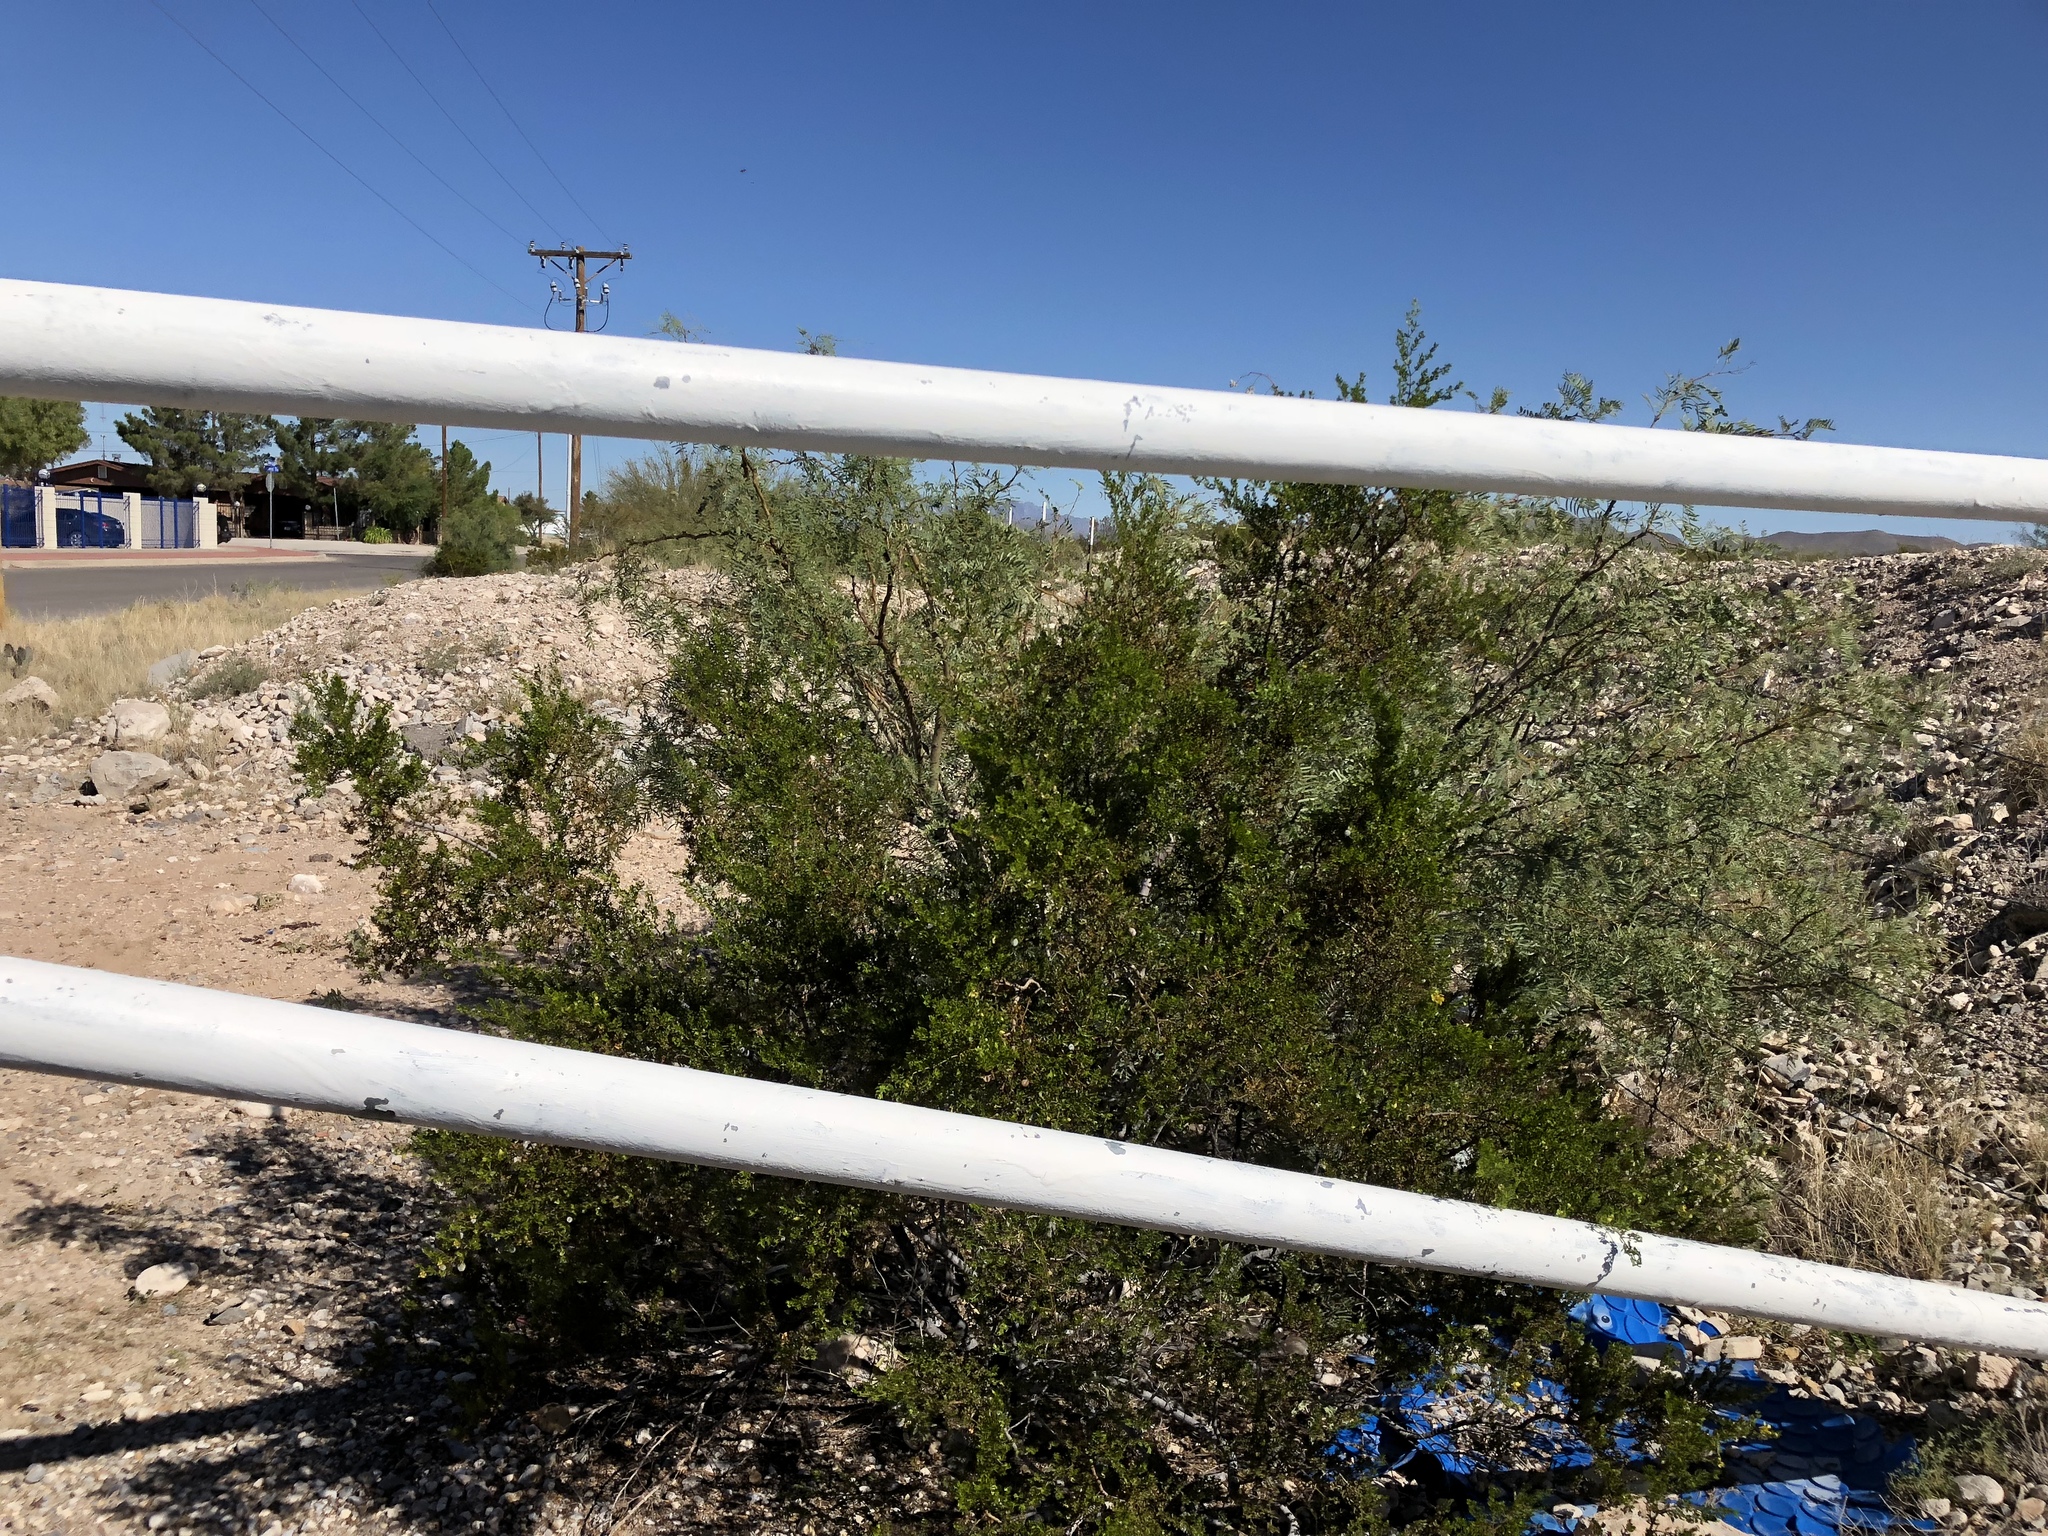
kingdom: Plantae
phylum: Tracheophyta
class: Magnoliopsida
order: Zygophyllales
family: Zygophyllaceae
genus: Larrea
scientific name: Larrea tridentata
